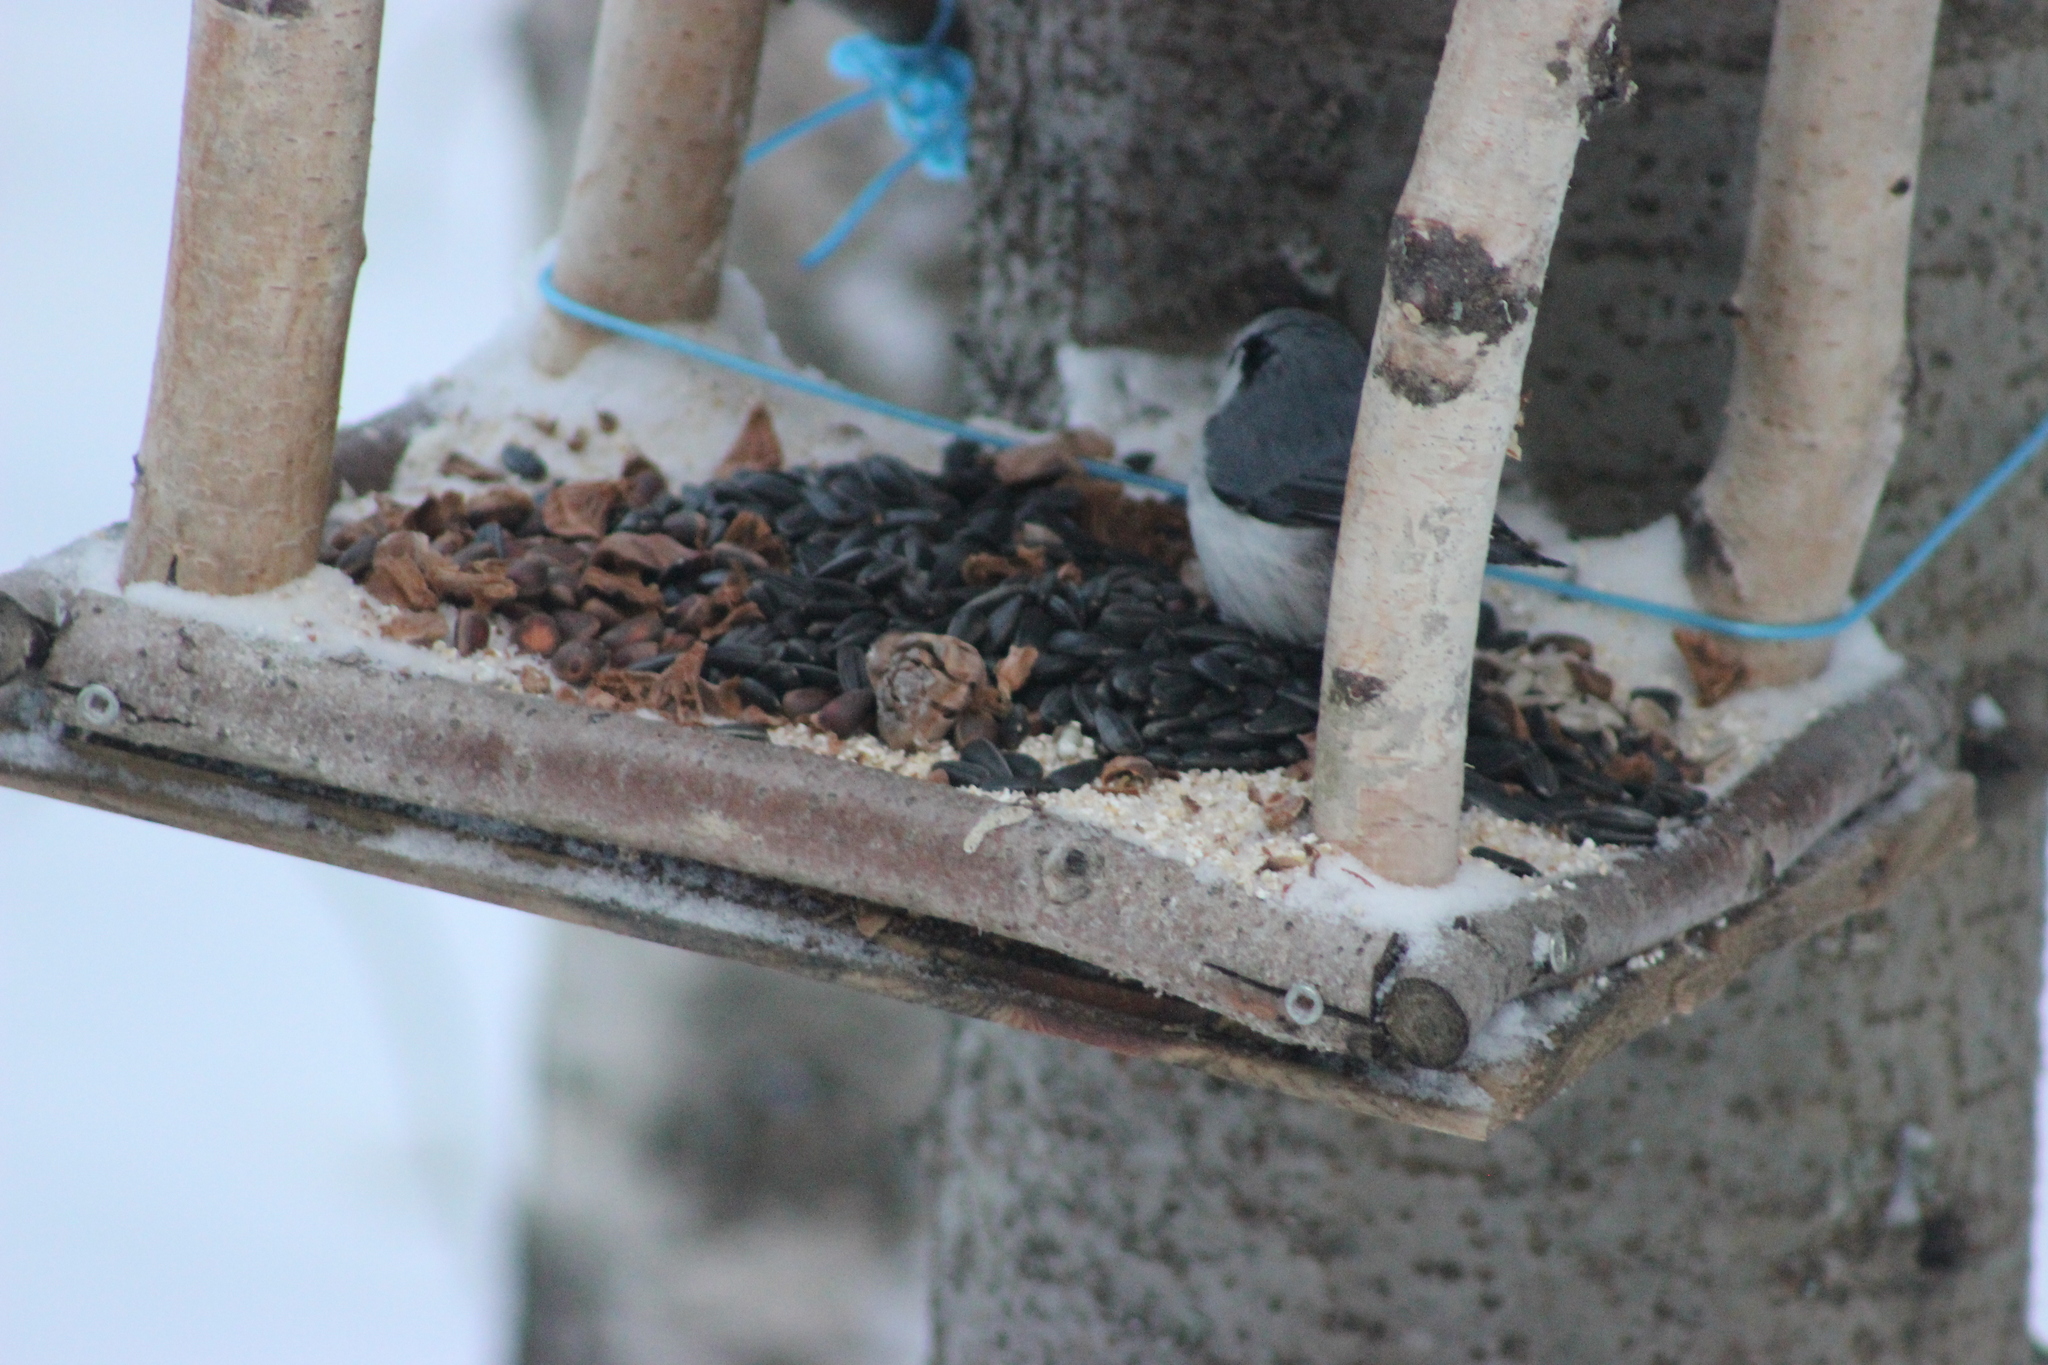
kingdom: Animalia
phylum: Chordata
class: Aves
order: Passeriformes
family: Sittidae
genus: Sitta
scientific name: Sitta europaea
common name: Eurasian nuthatch
